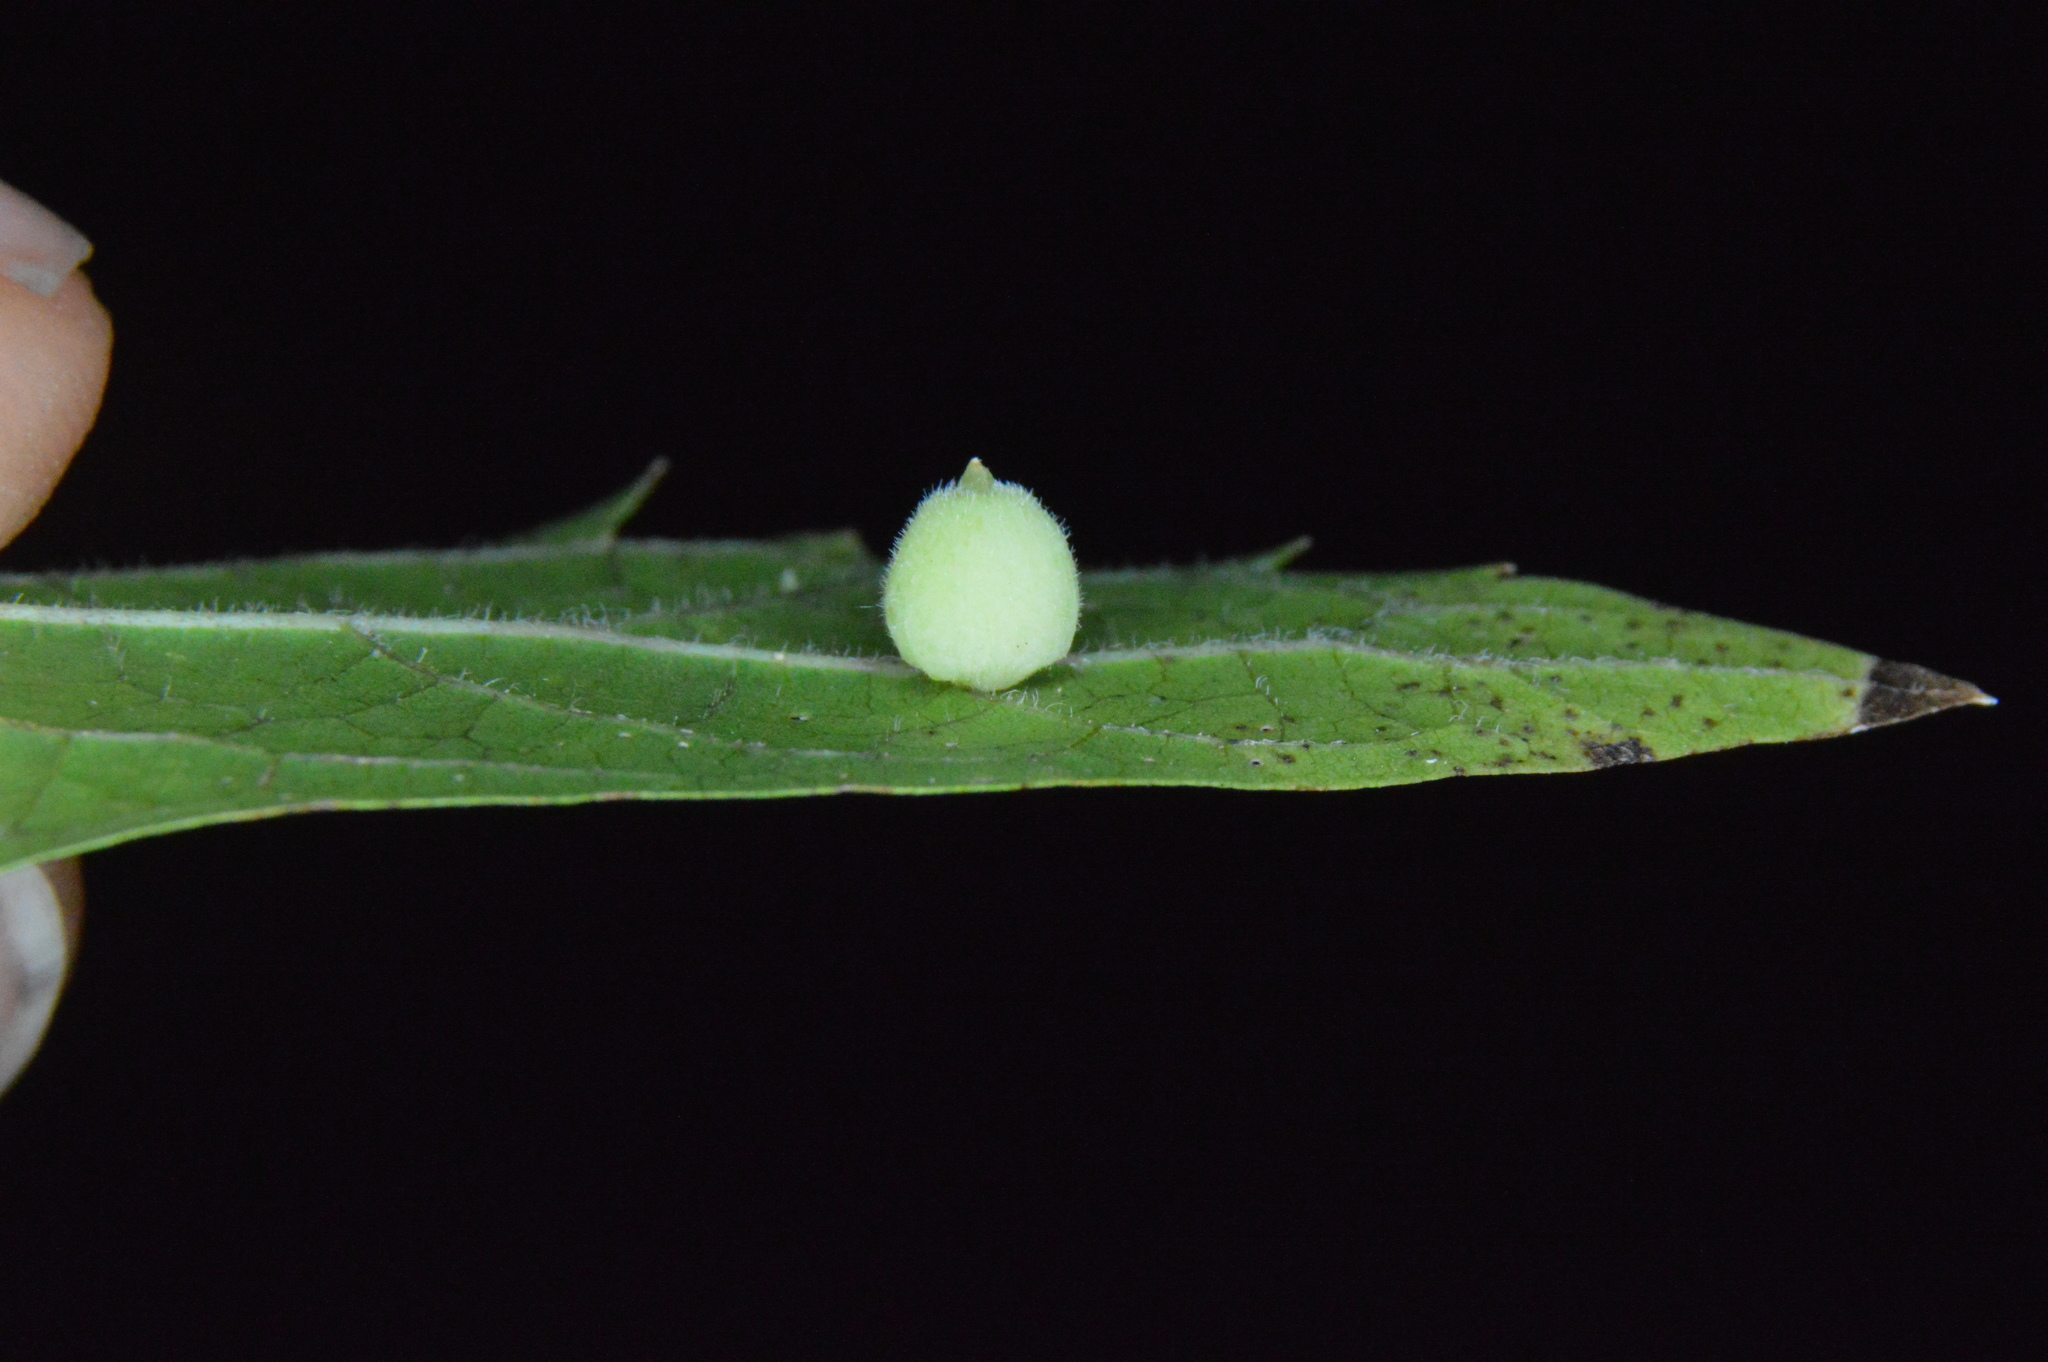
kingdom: Animalia
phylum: Arthropoda
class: Insecta
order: Diptera
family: Cecidomyiidae
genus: Celticecis
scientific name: Celticecis globosa
